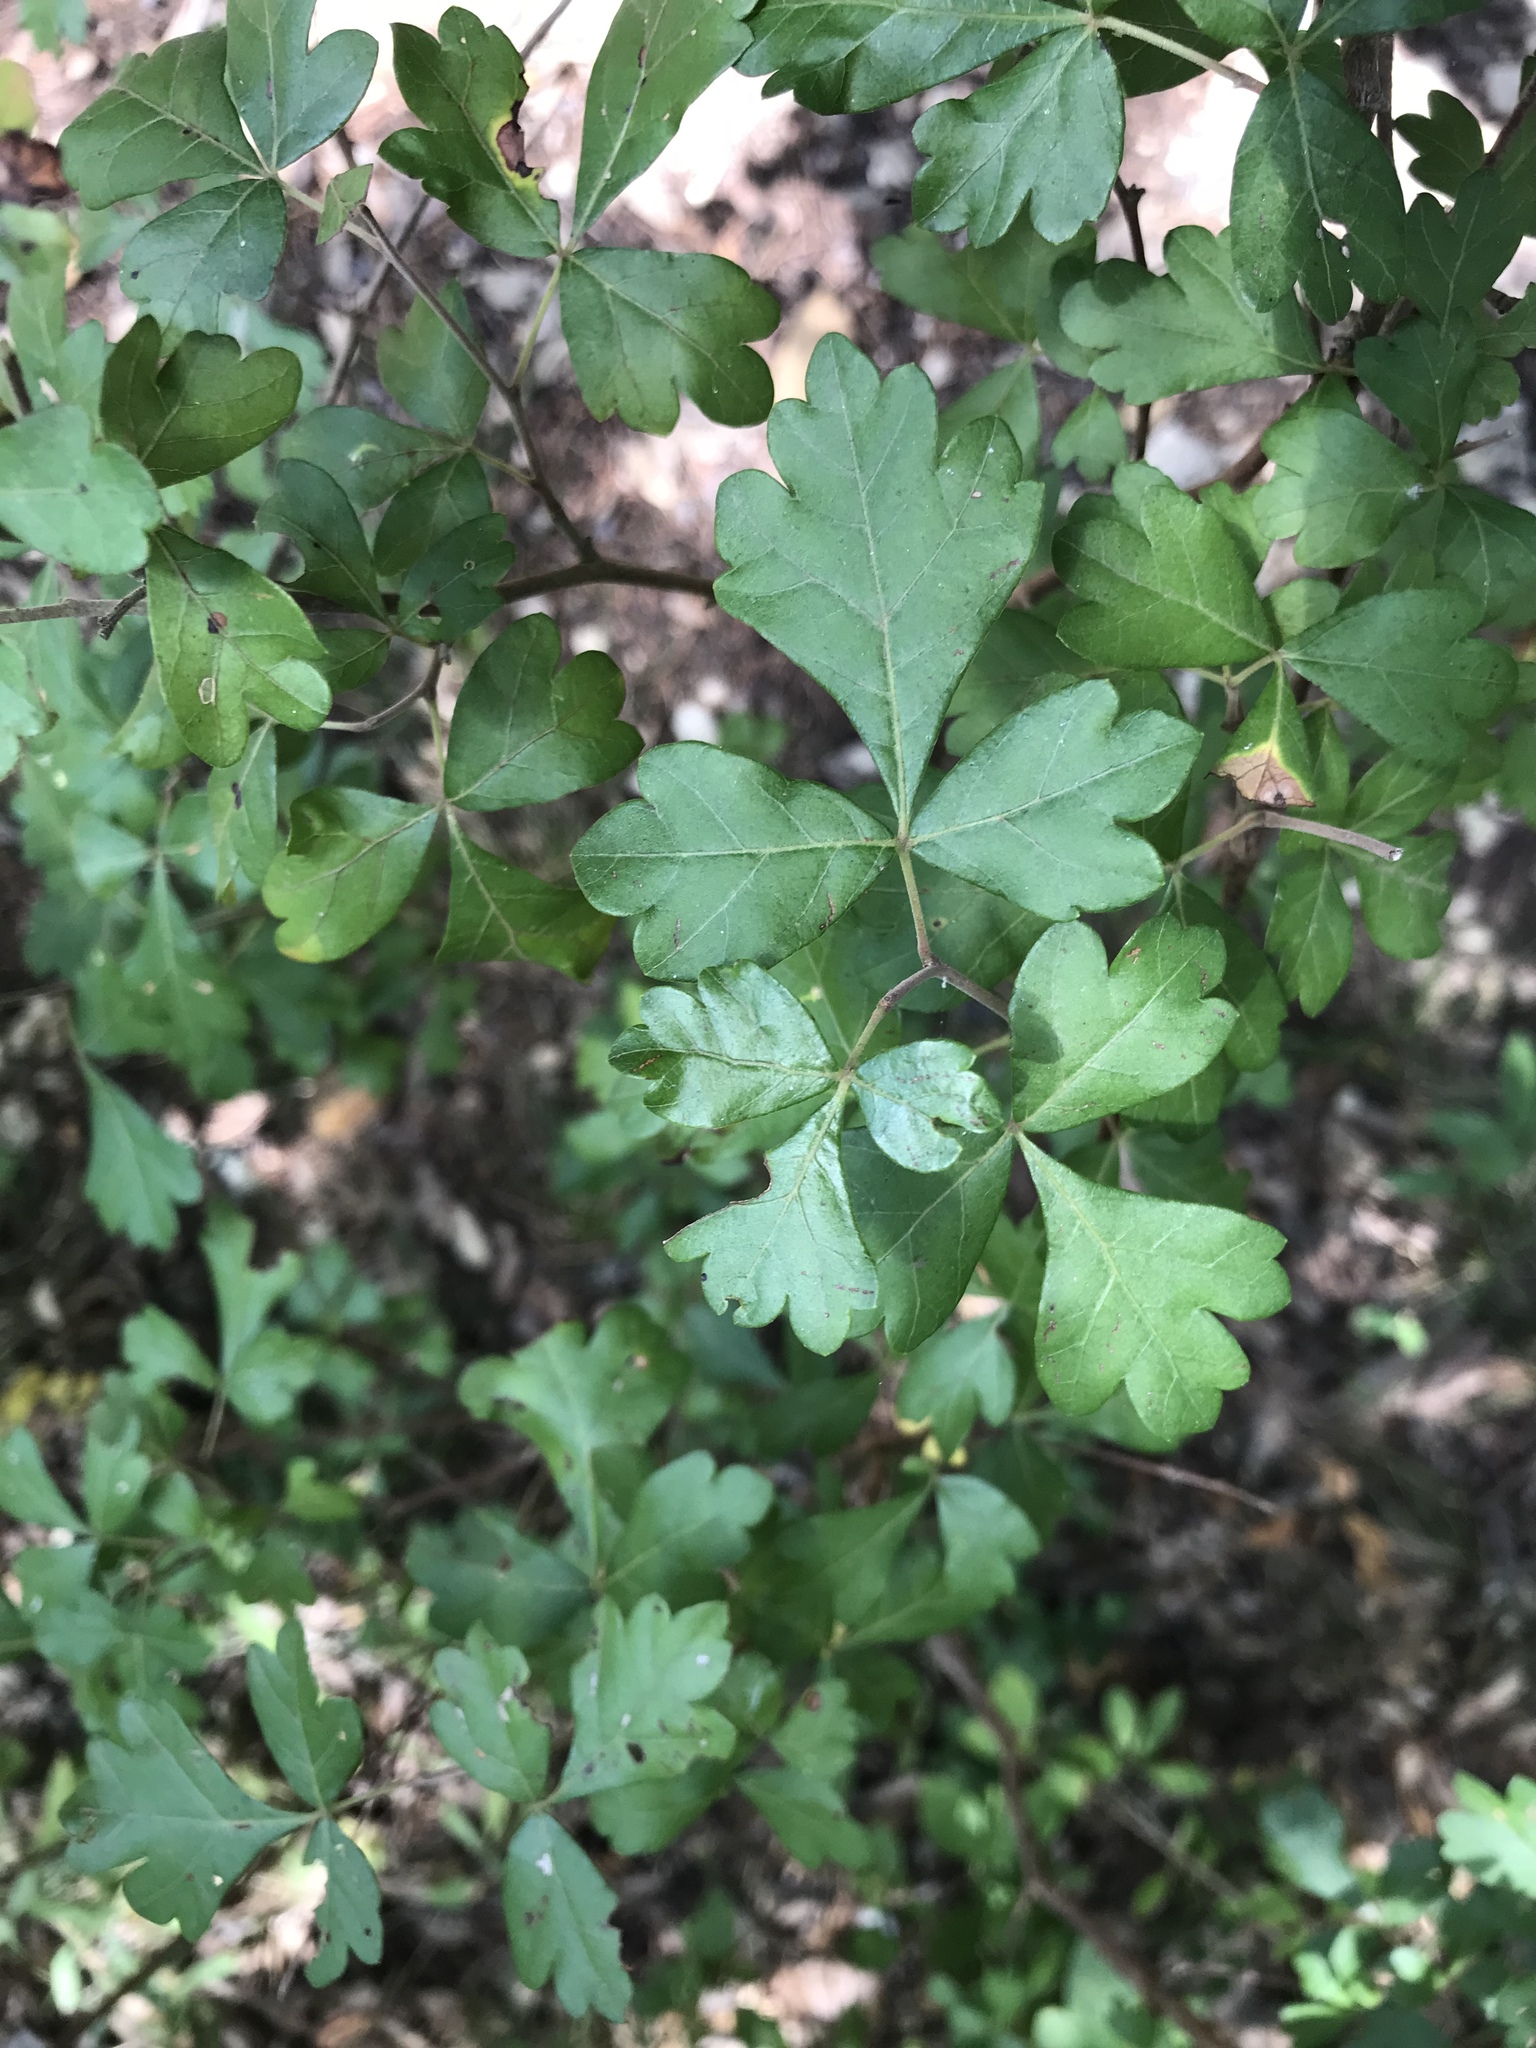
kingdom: Plantae
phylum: Tracheophyta
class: Magnoliopsida
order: Sapindales
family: Anacardiaceae
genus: Rhus
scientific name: Rhus aromatica
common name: Aromatic sumac
